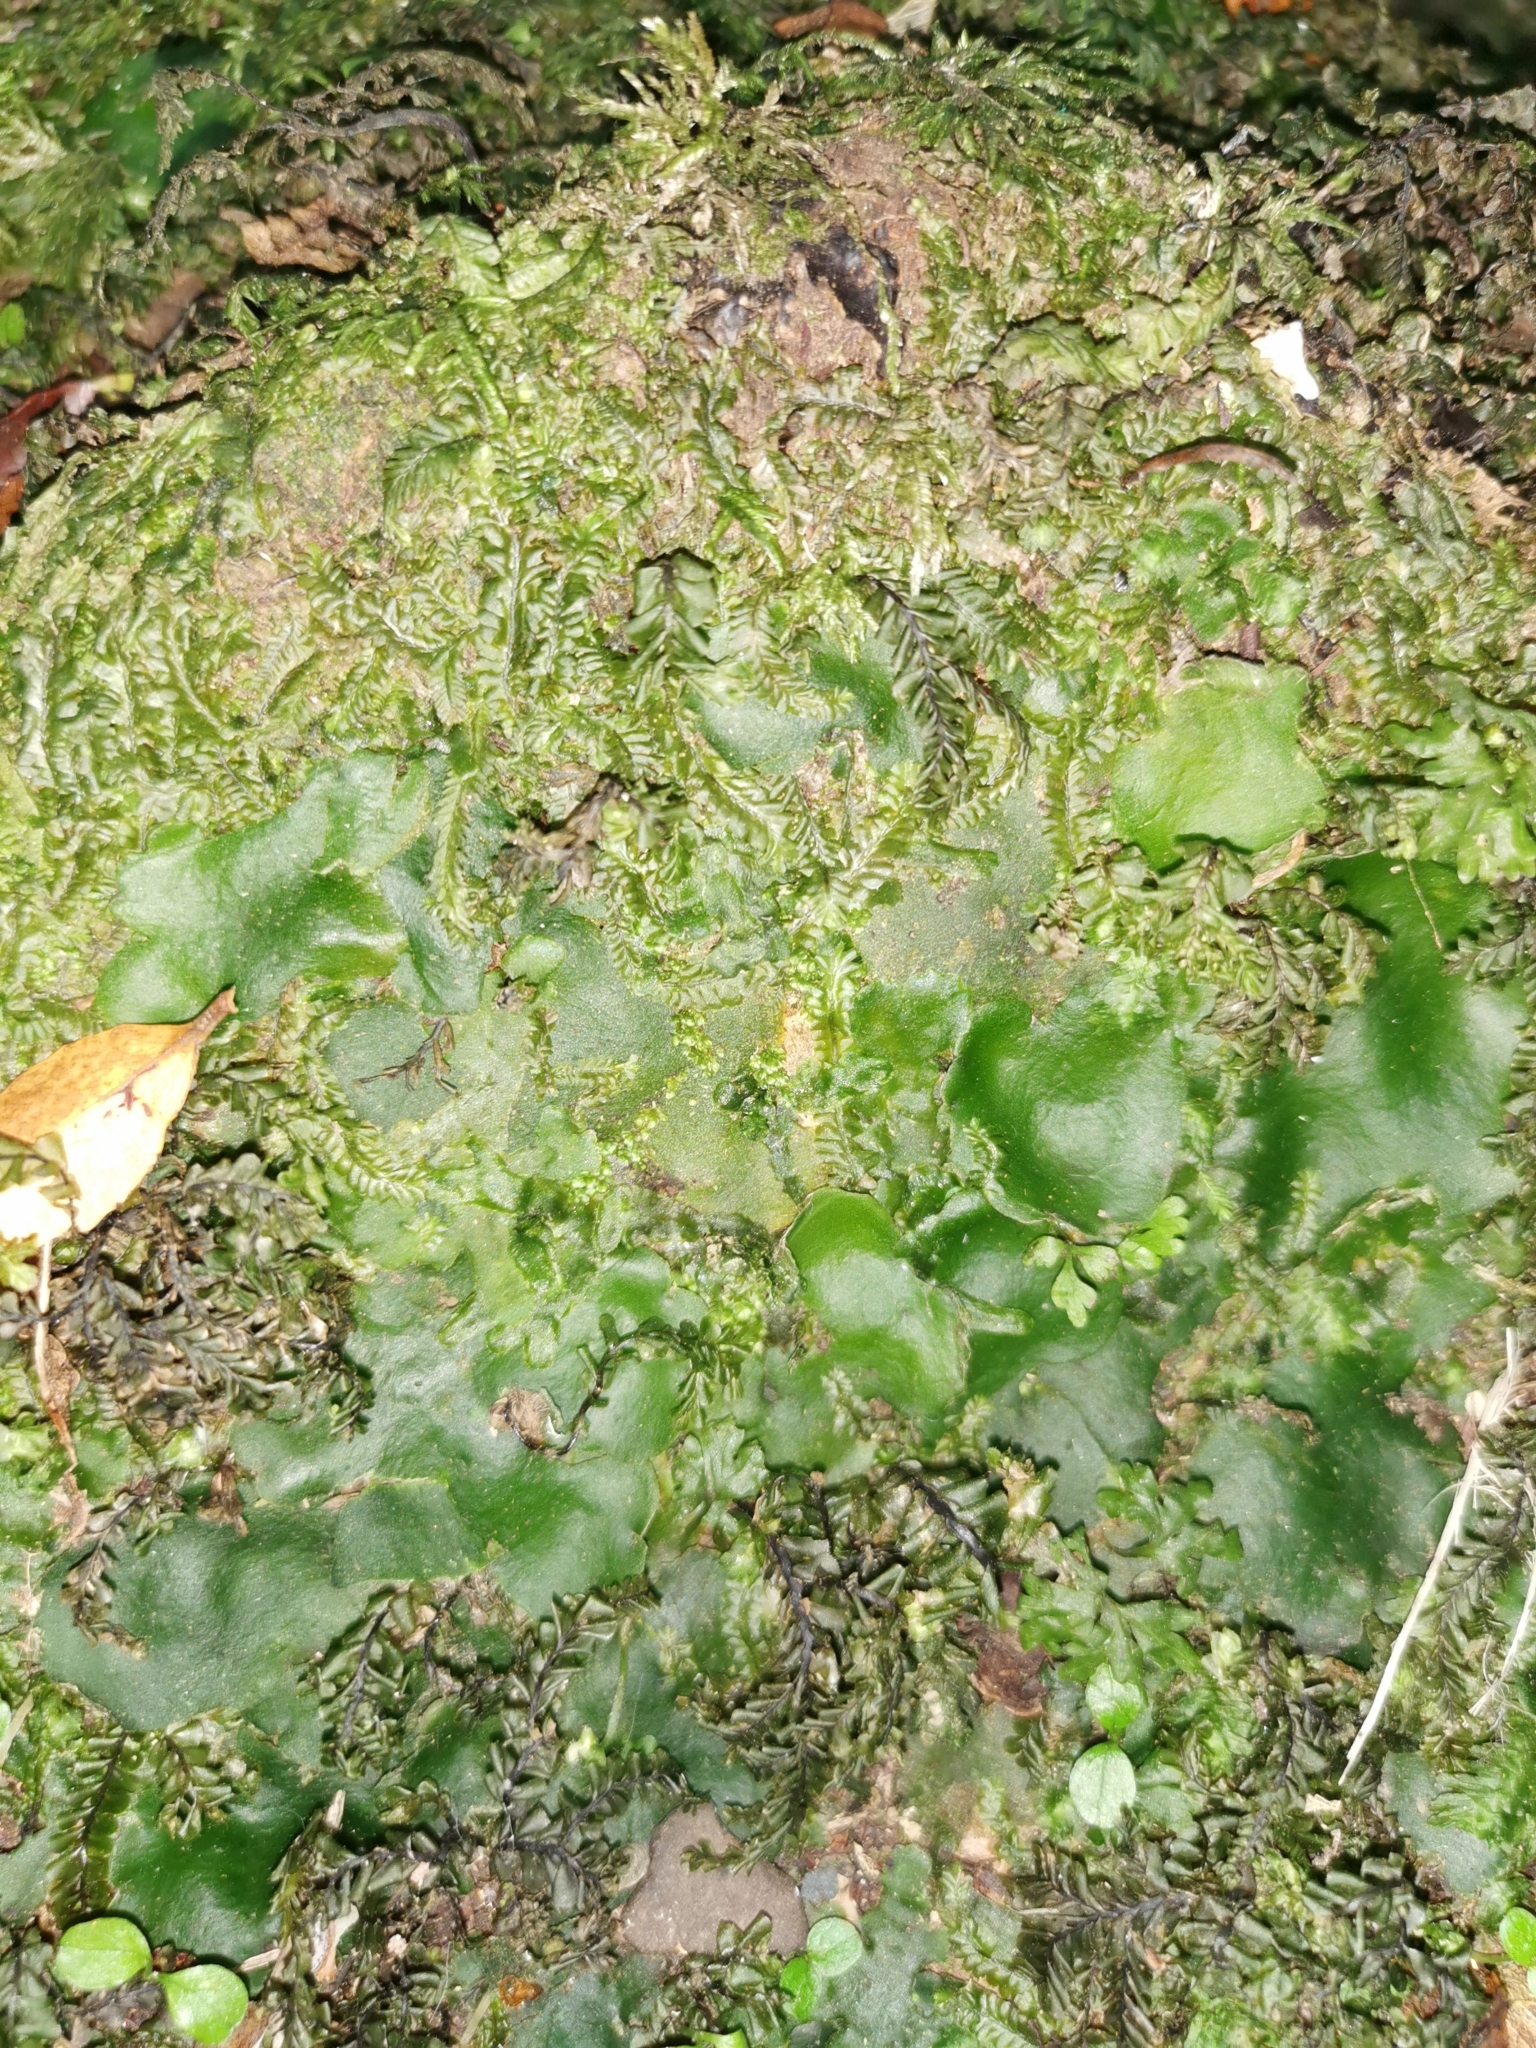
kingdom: Plantae
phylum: Marchantiophyta
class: Marchantiopsida
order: Marchantiales
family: Monocleaceae
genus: Monoclea
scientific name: Monoclea forsteri
